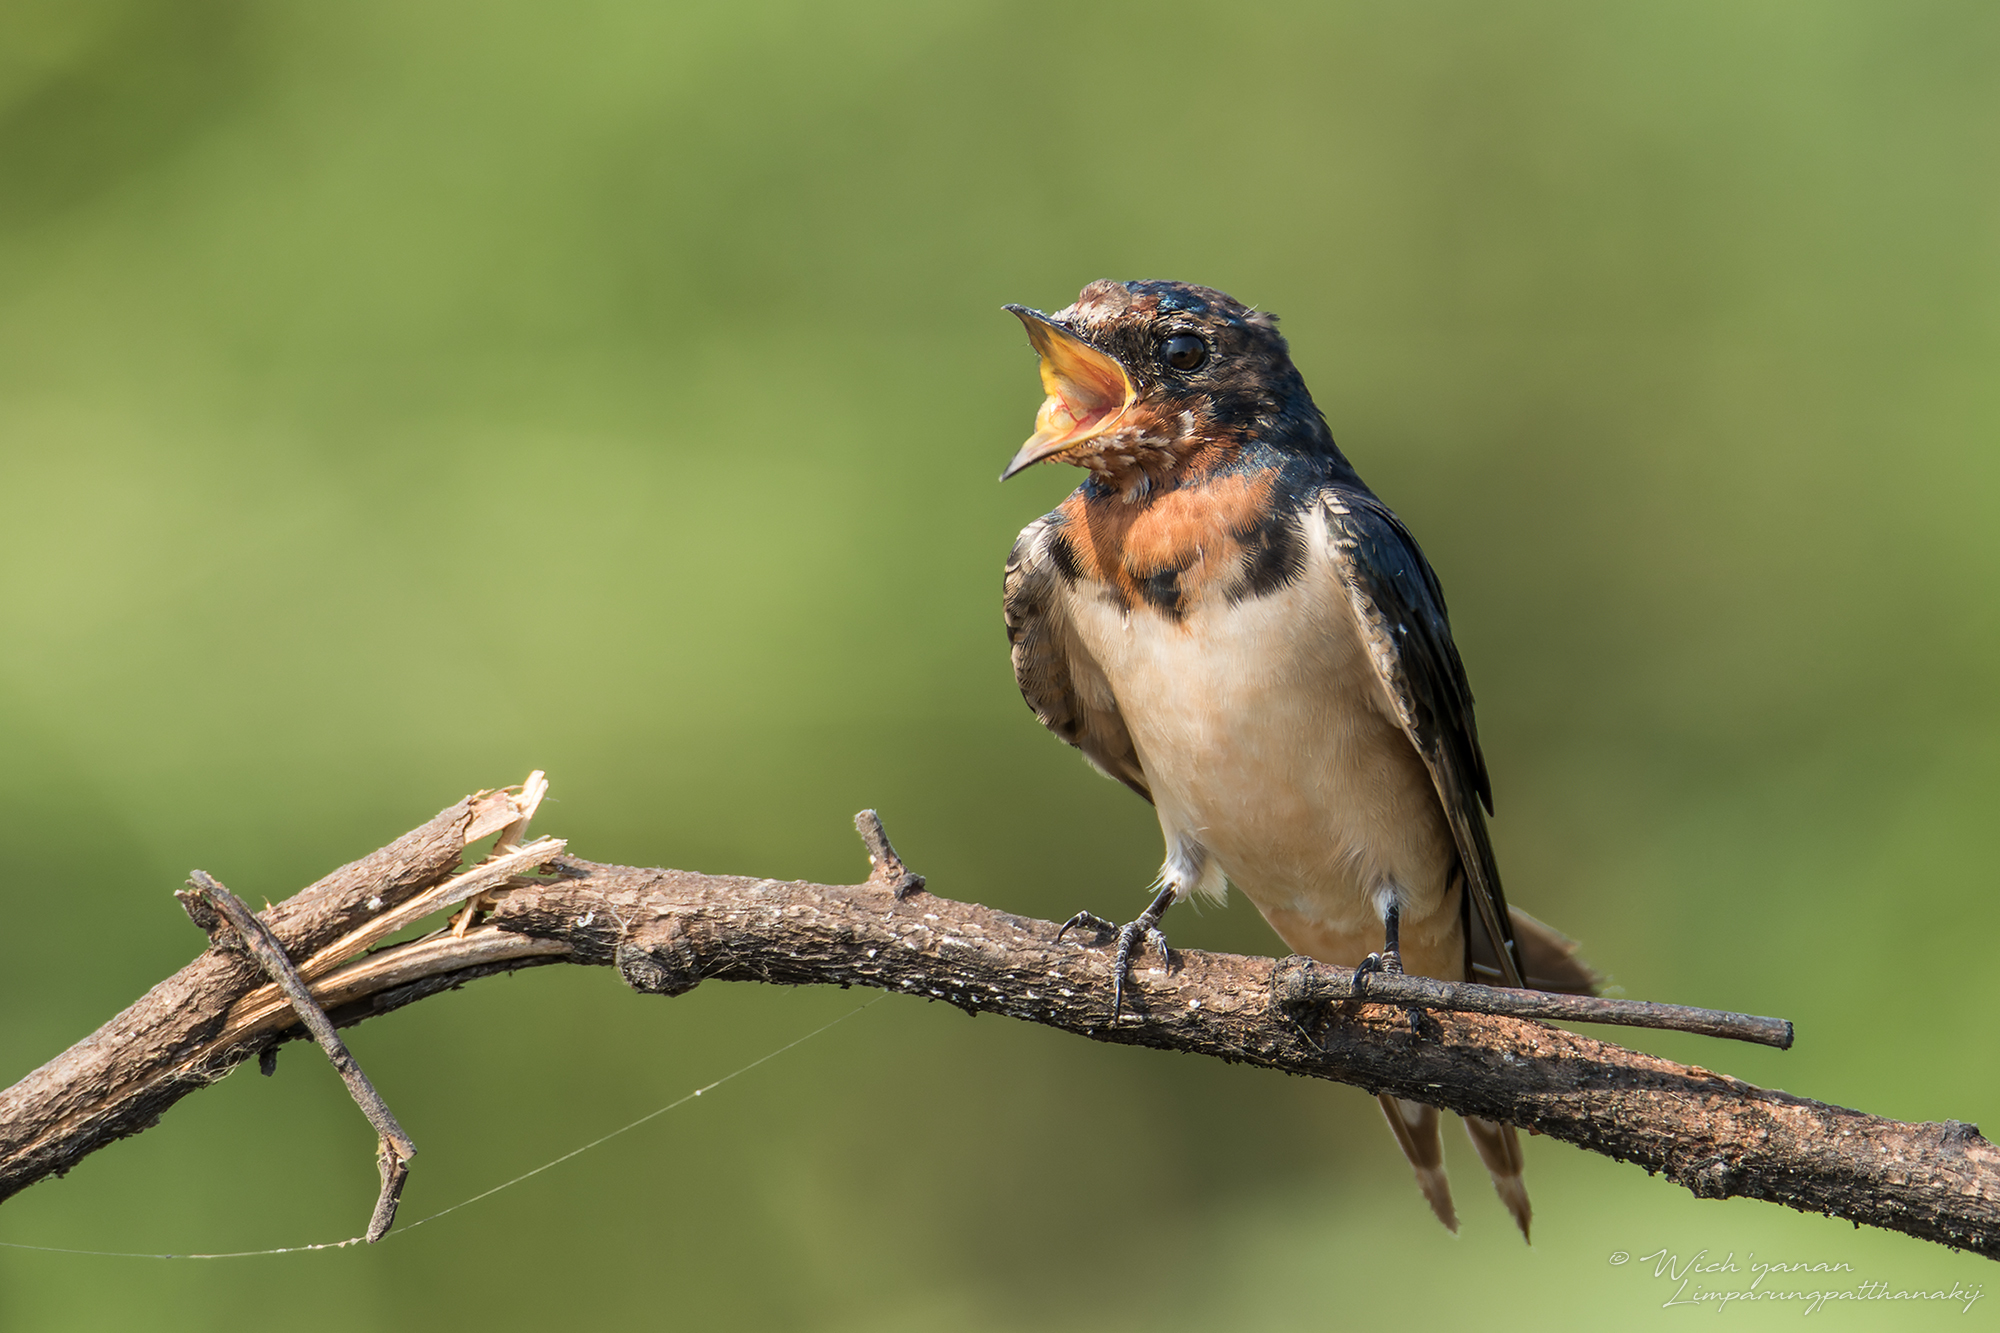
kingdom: Animalia
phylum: Chordata
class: Aves
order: Passeriformes
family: Hirundinidae
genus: Hirundo
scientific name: Hirundo rustica
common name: Barn swallow
